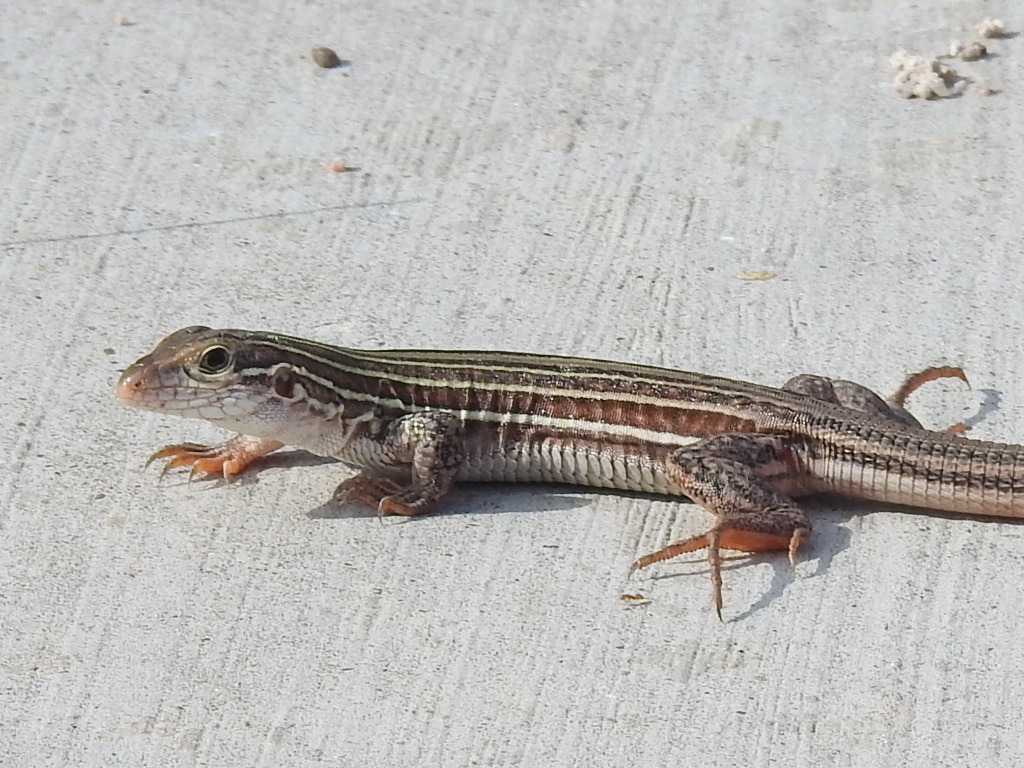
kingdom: Animalia
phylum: Chordata
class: Squamata
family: Teiidae
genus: Aspidoscelis
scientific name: Aspidoscelis gularis
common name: Eastern spotted whiptail
